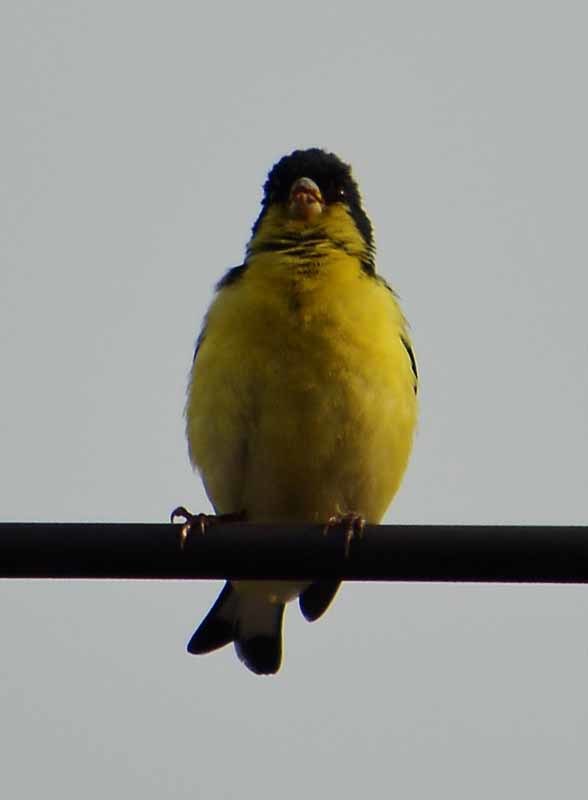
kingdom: Animalia
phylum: Chordata
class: Aves
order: Passeriformes
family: Fringillidae
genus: Spinus
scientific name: Spinus psaltria
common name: Lesser goldfinch
